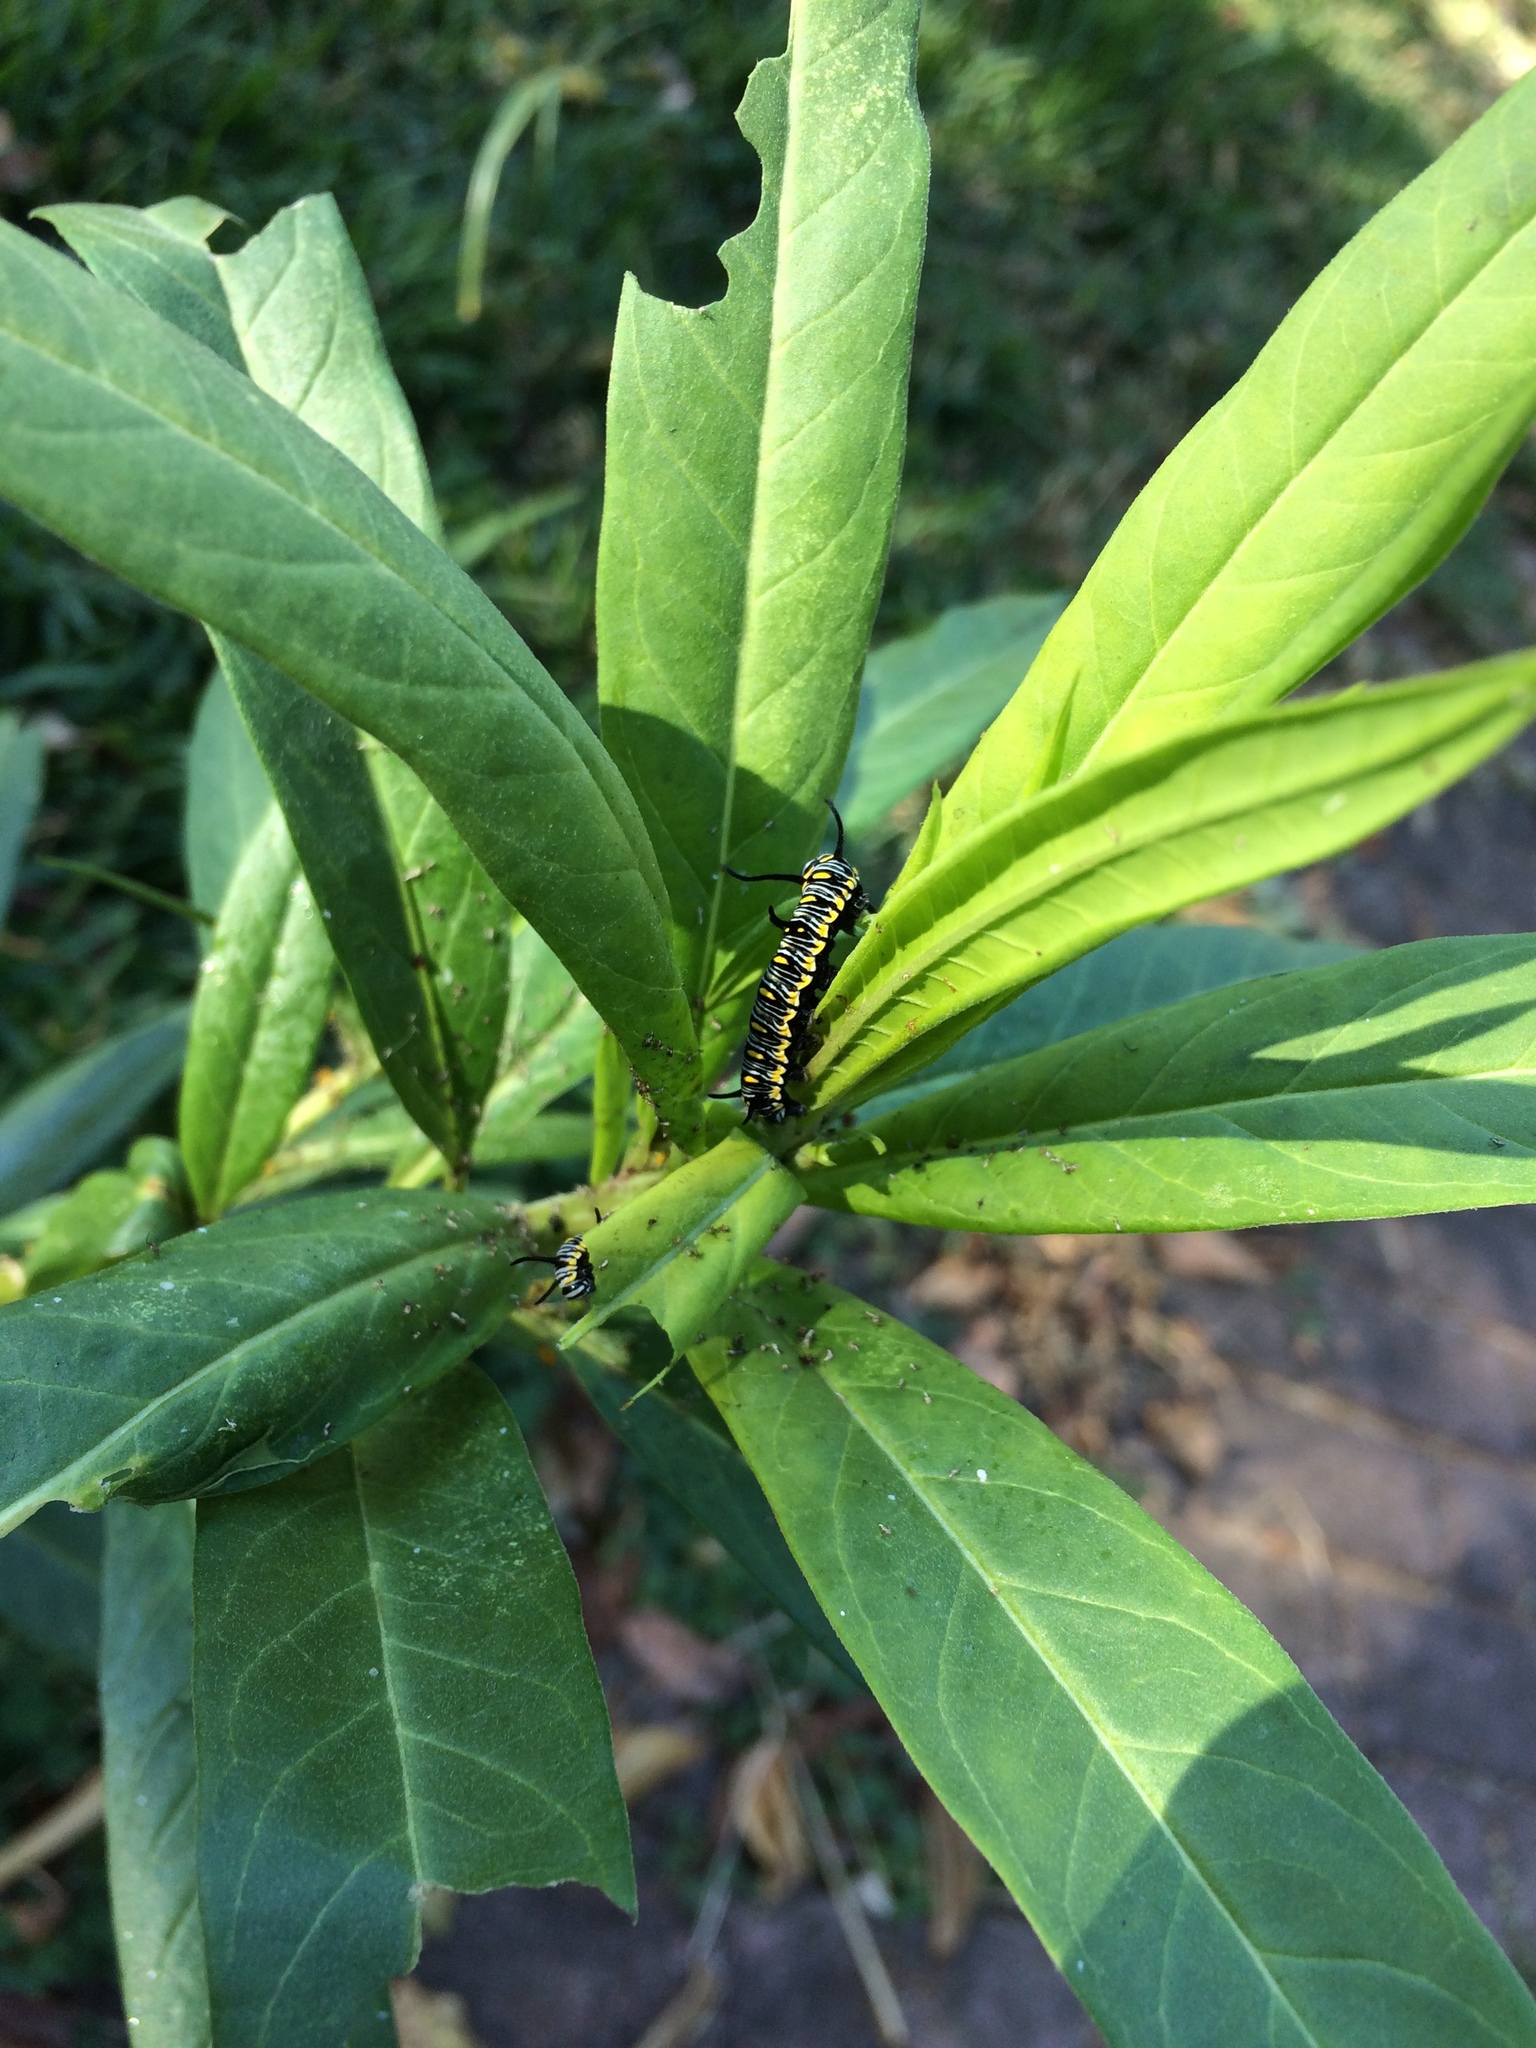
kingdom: Plantae
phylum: Tracheophyta
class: Magnoliopsida
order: Gentianales
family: Apocynaceae
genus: Gomphocarpus
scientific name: Gomphocarpus physocarpus
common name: Balloon cotton bush
